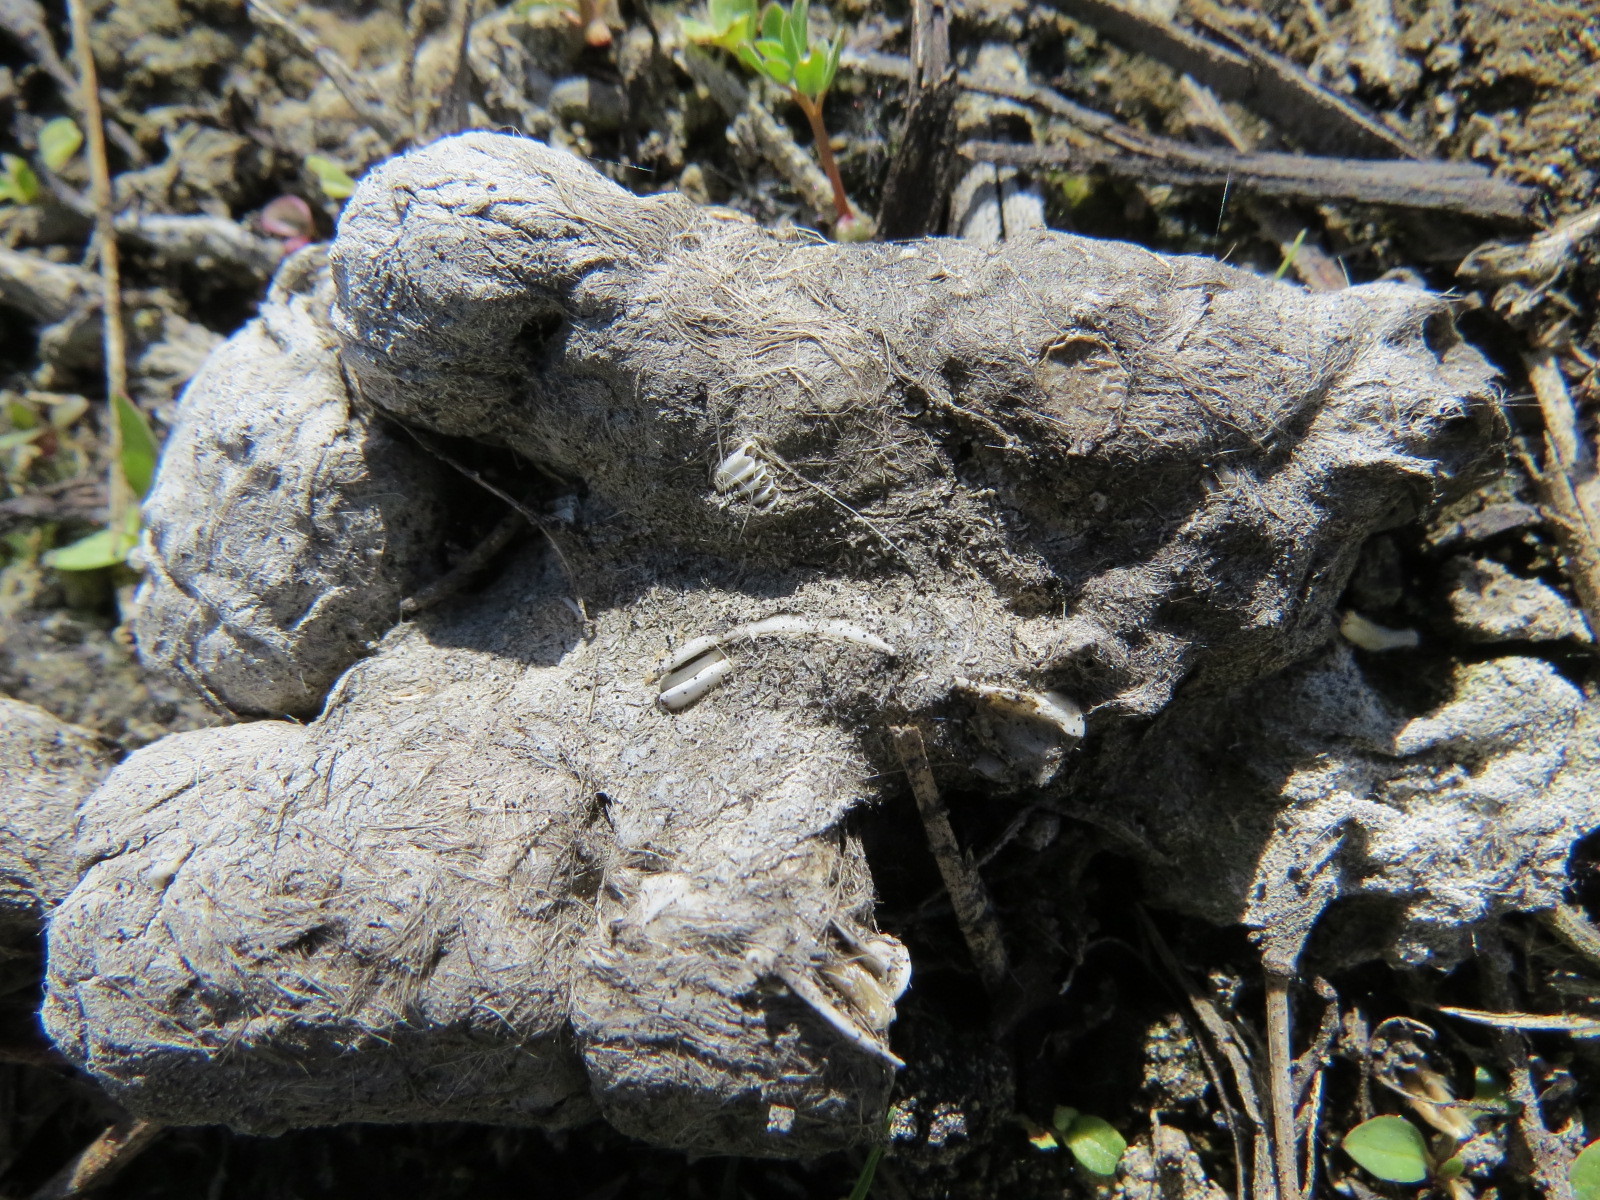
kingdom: Animalia
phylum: Chordata
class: Mammalia
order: Carnivora
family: Felidae
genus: Lynx
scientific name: Lynx rufus
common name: Bobcat
